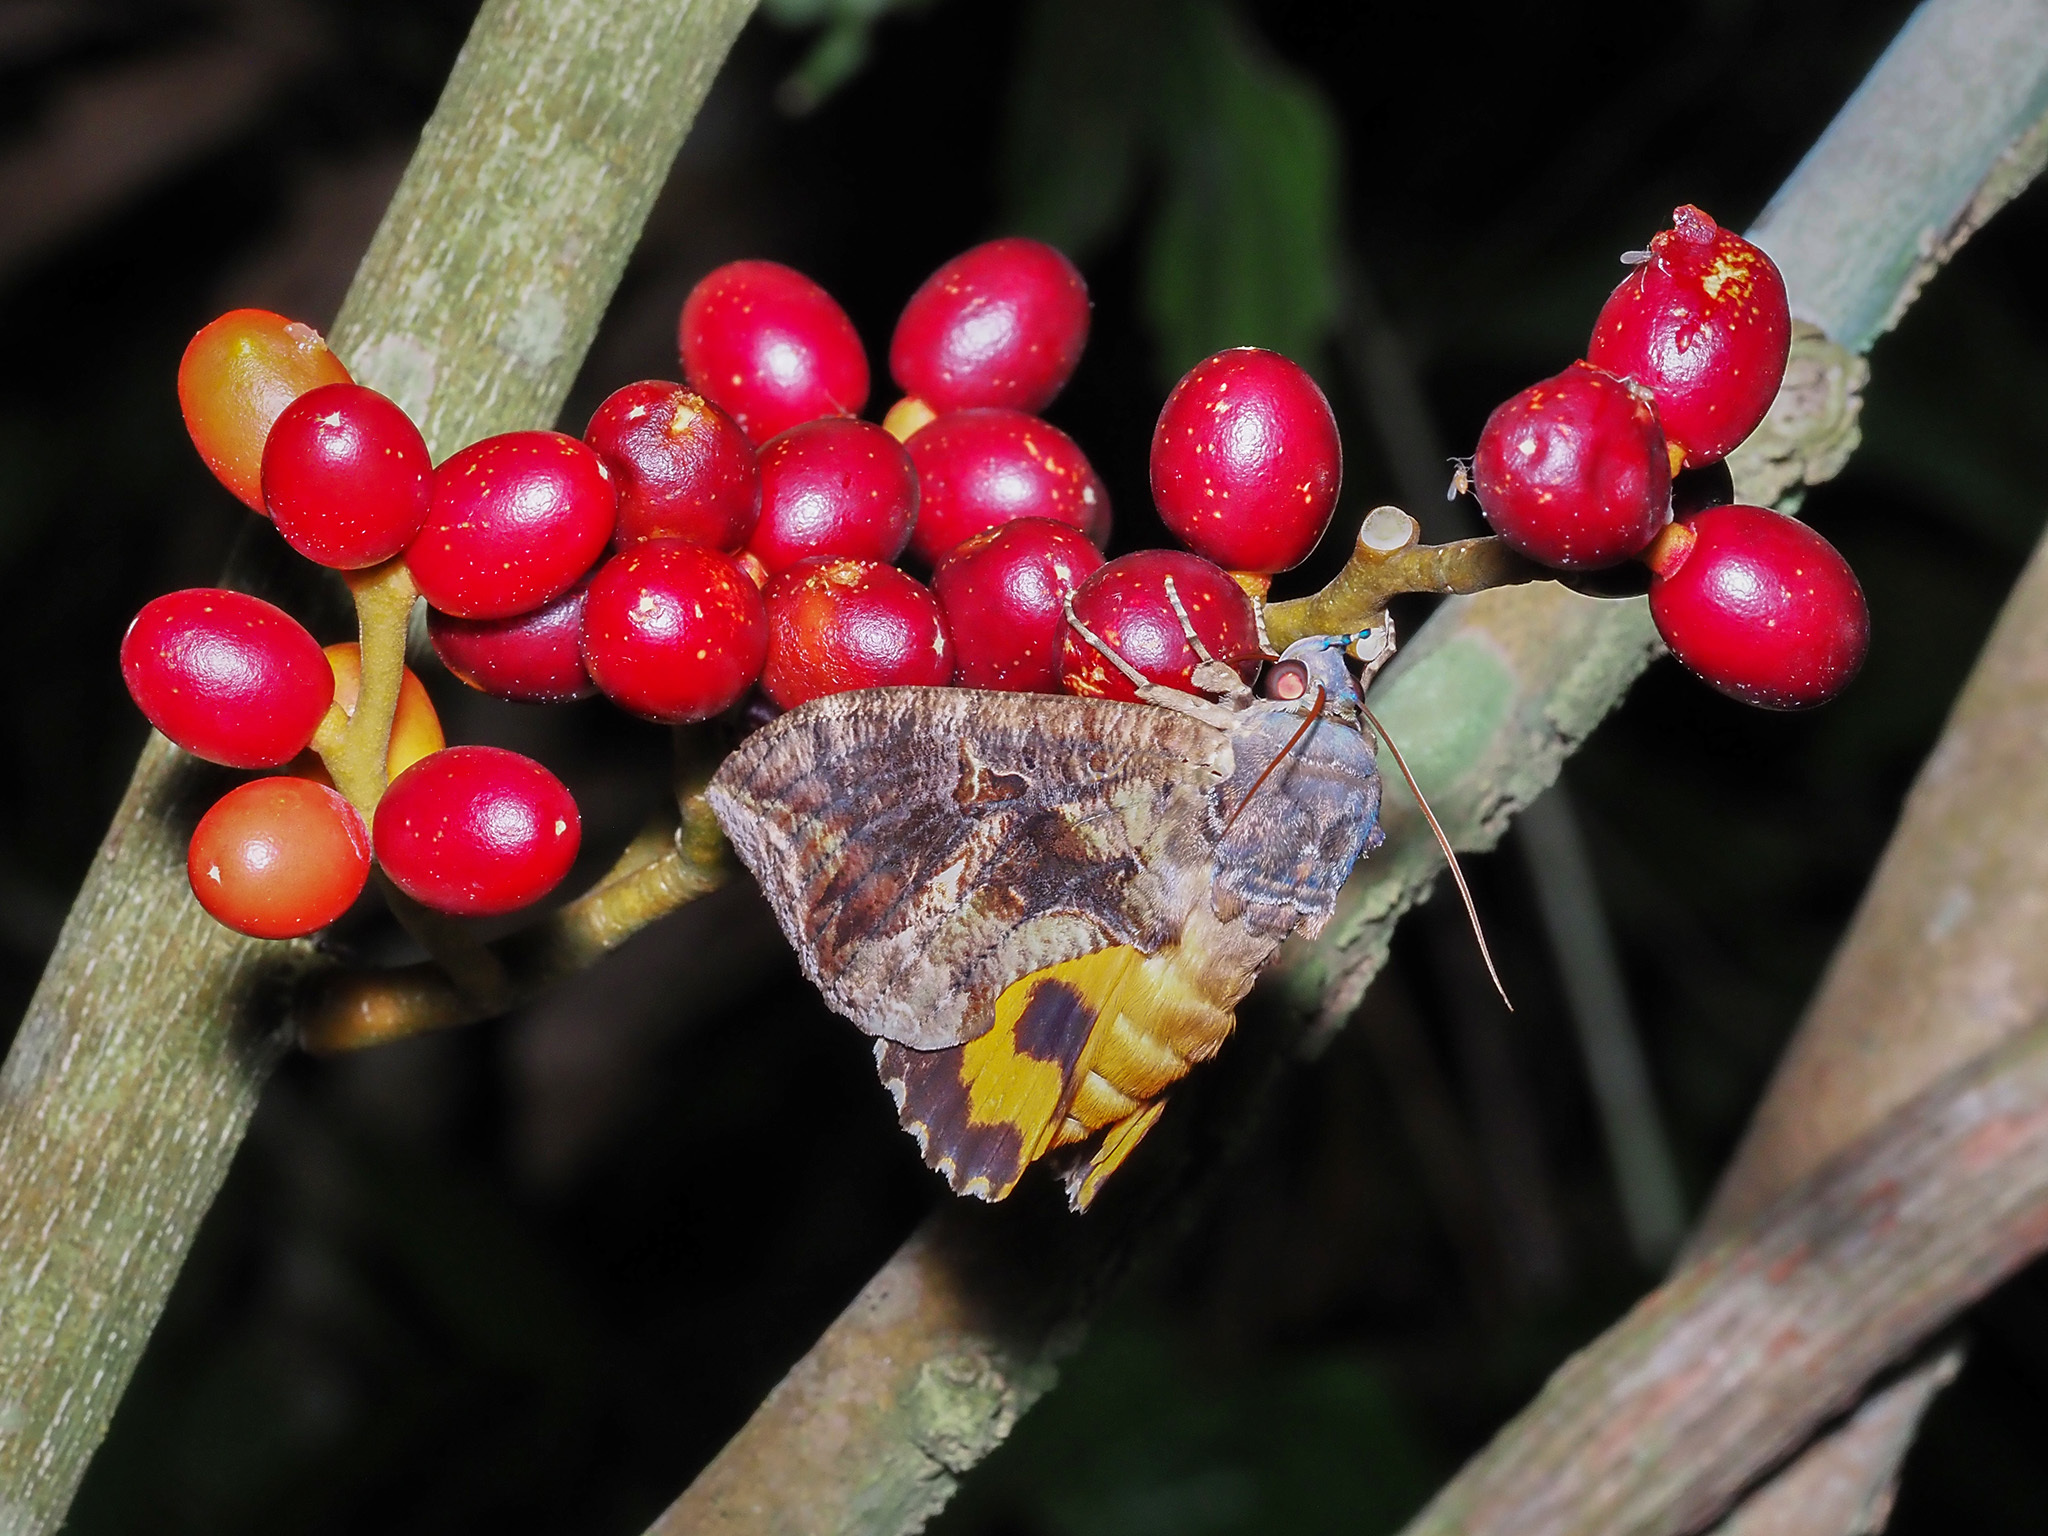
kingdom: Animalia
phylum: Arthropoda
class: Insecta
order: Lepidoptera
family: Erebidae
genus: Eudocima
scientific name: Eudocima phalonia
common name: Wasp
